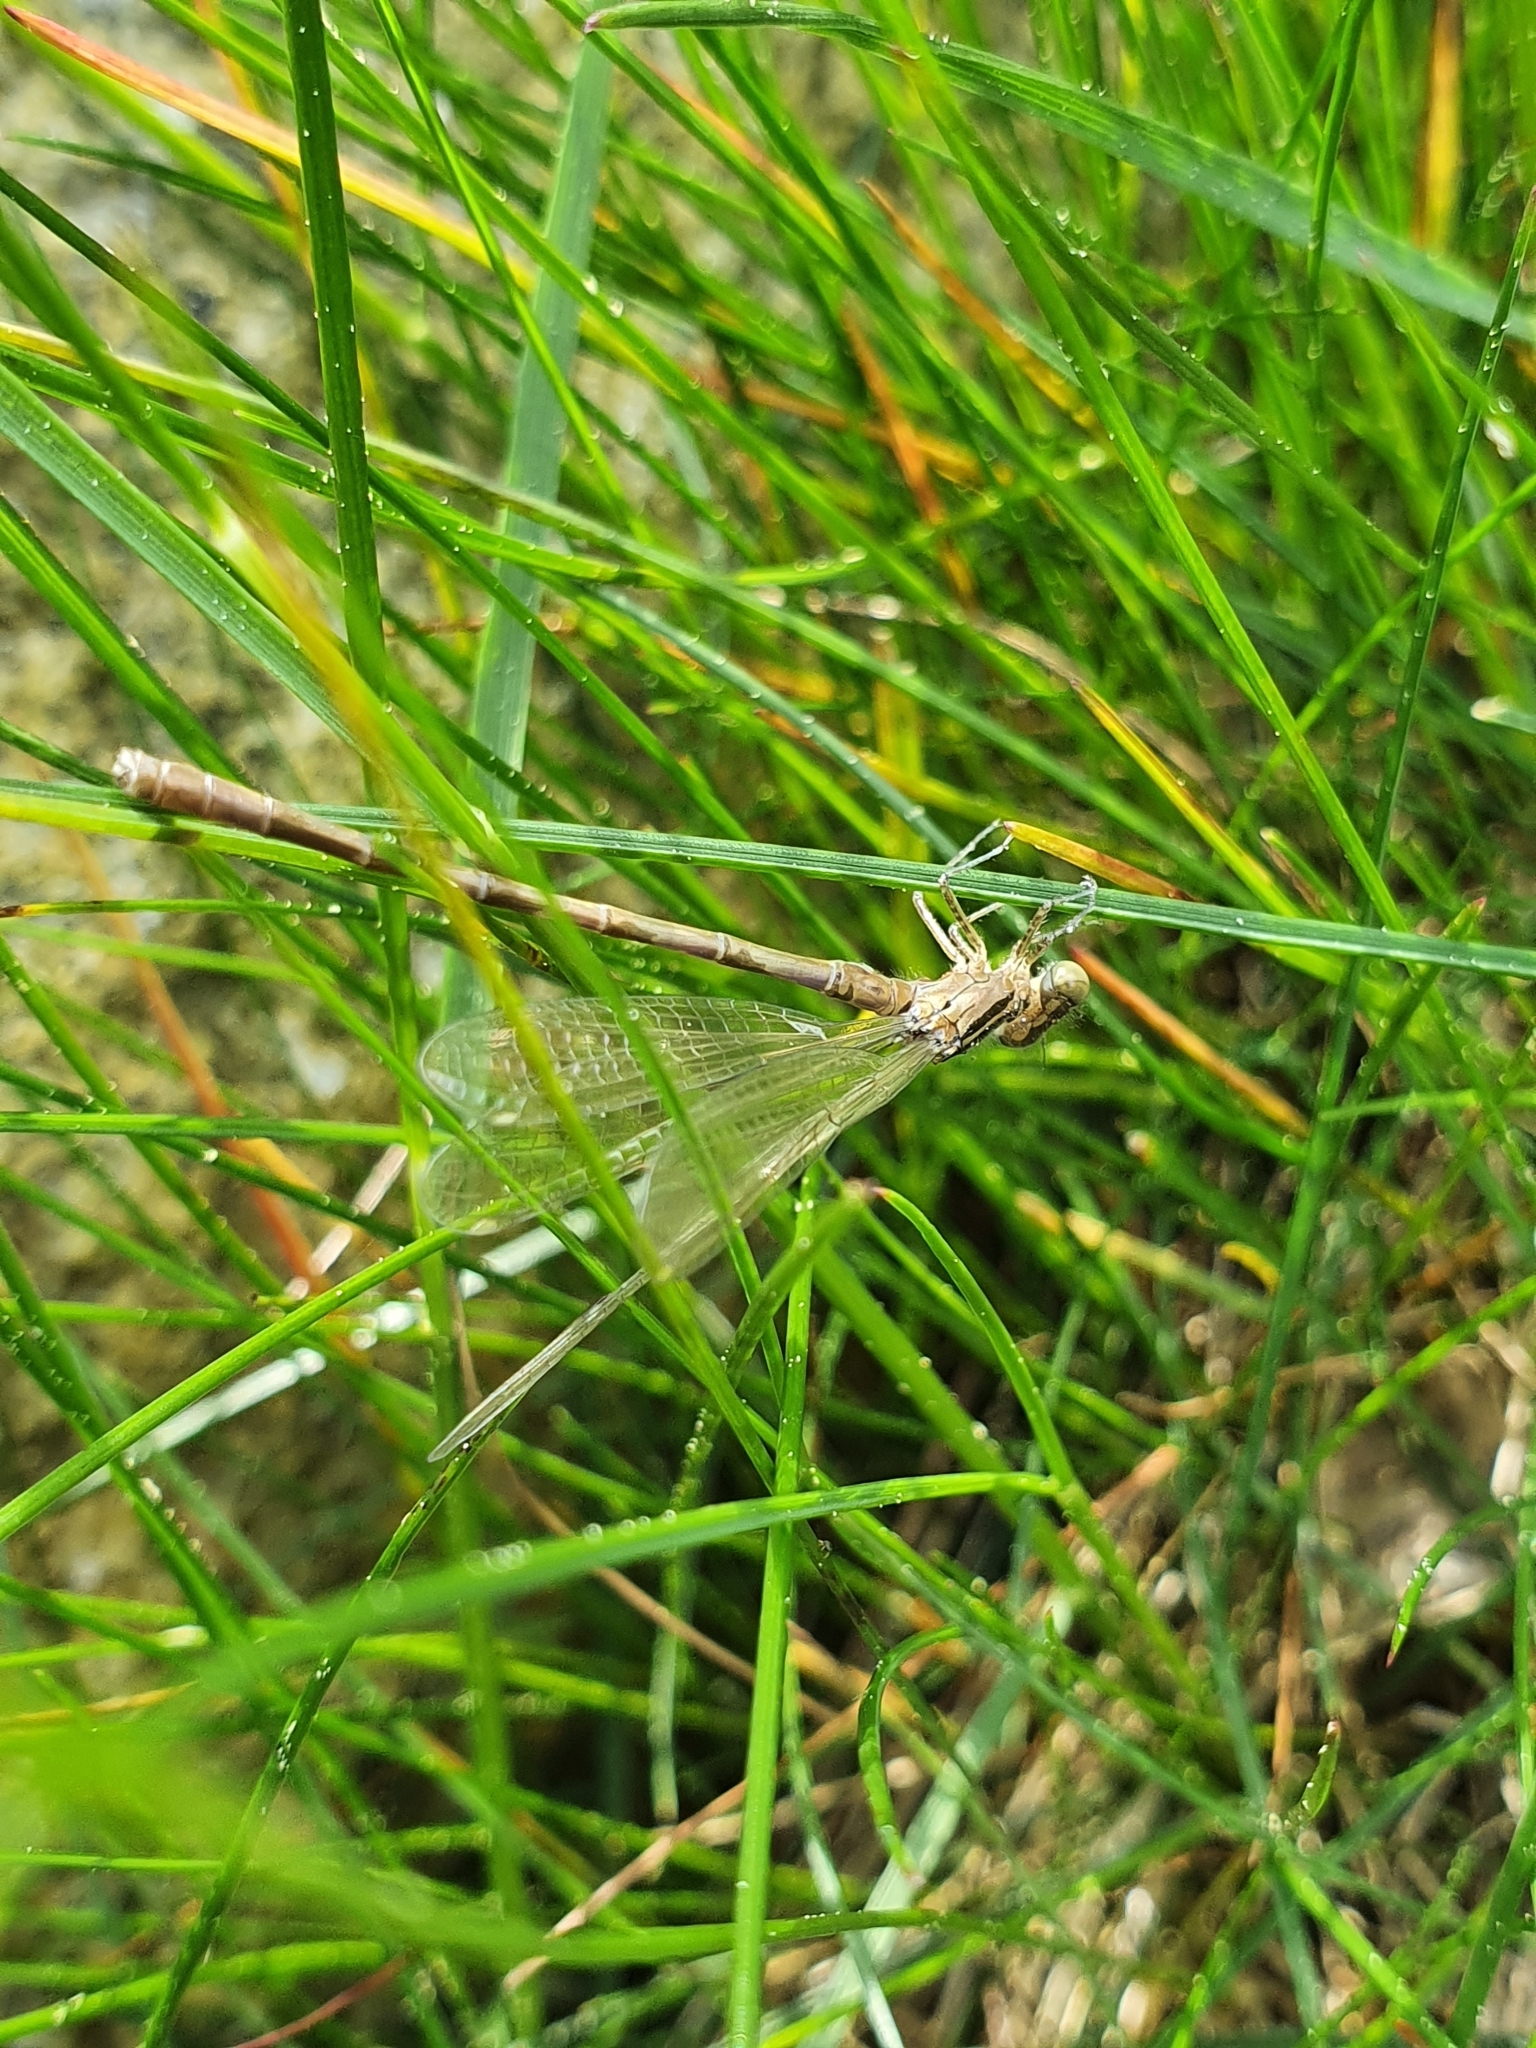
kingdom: Animalia
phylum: Arthropoda
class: Insecta
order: Odonata
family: Coenagrionidae
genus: Coenagrion
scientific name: Coenagrion hastulatum
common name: Spearhead bluet
